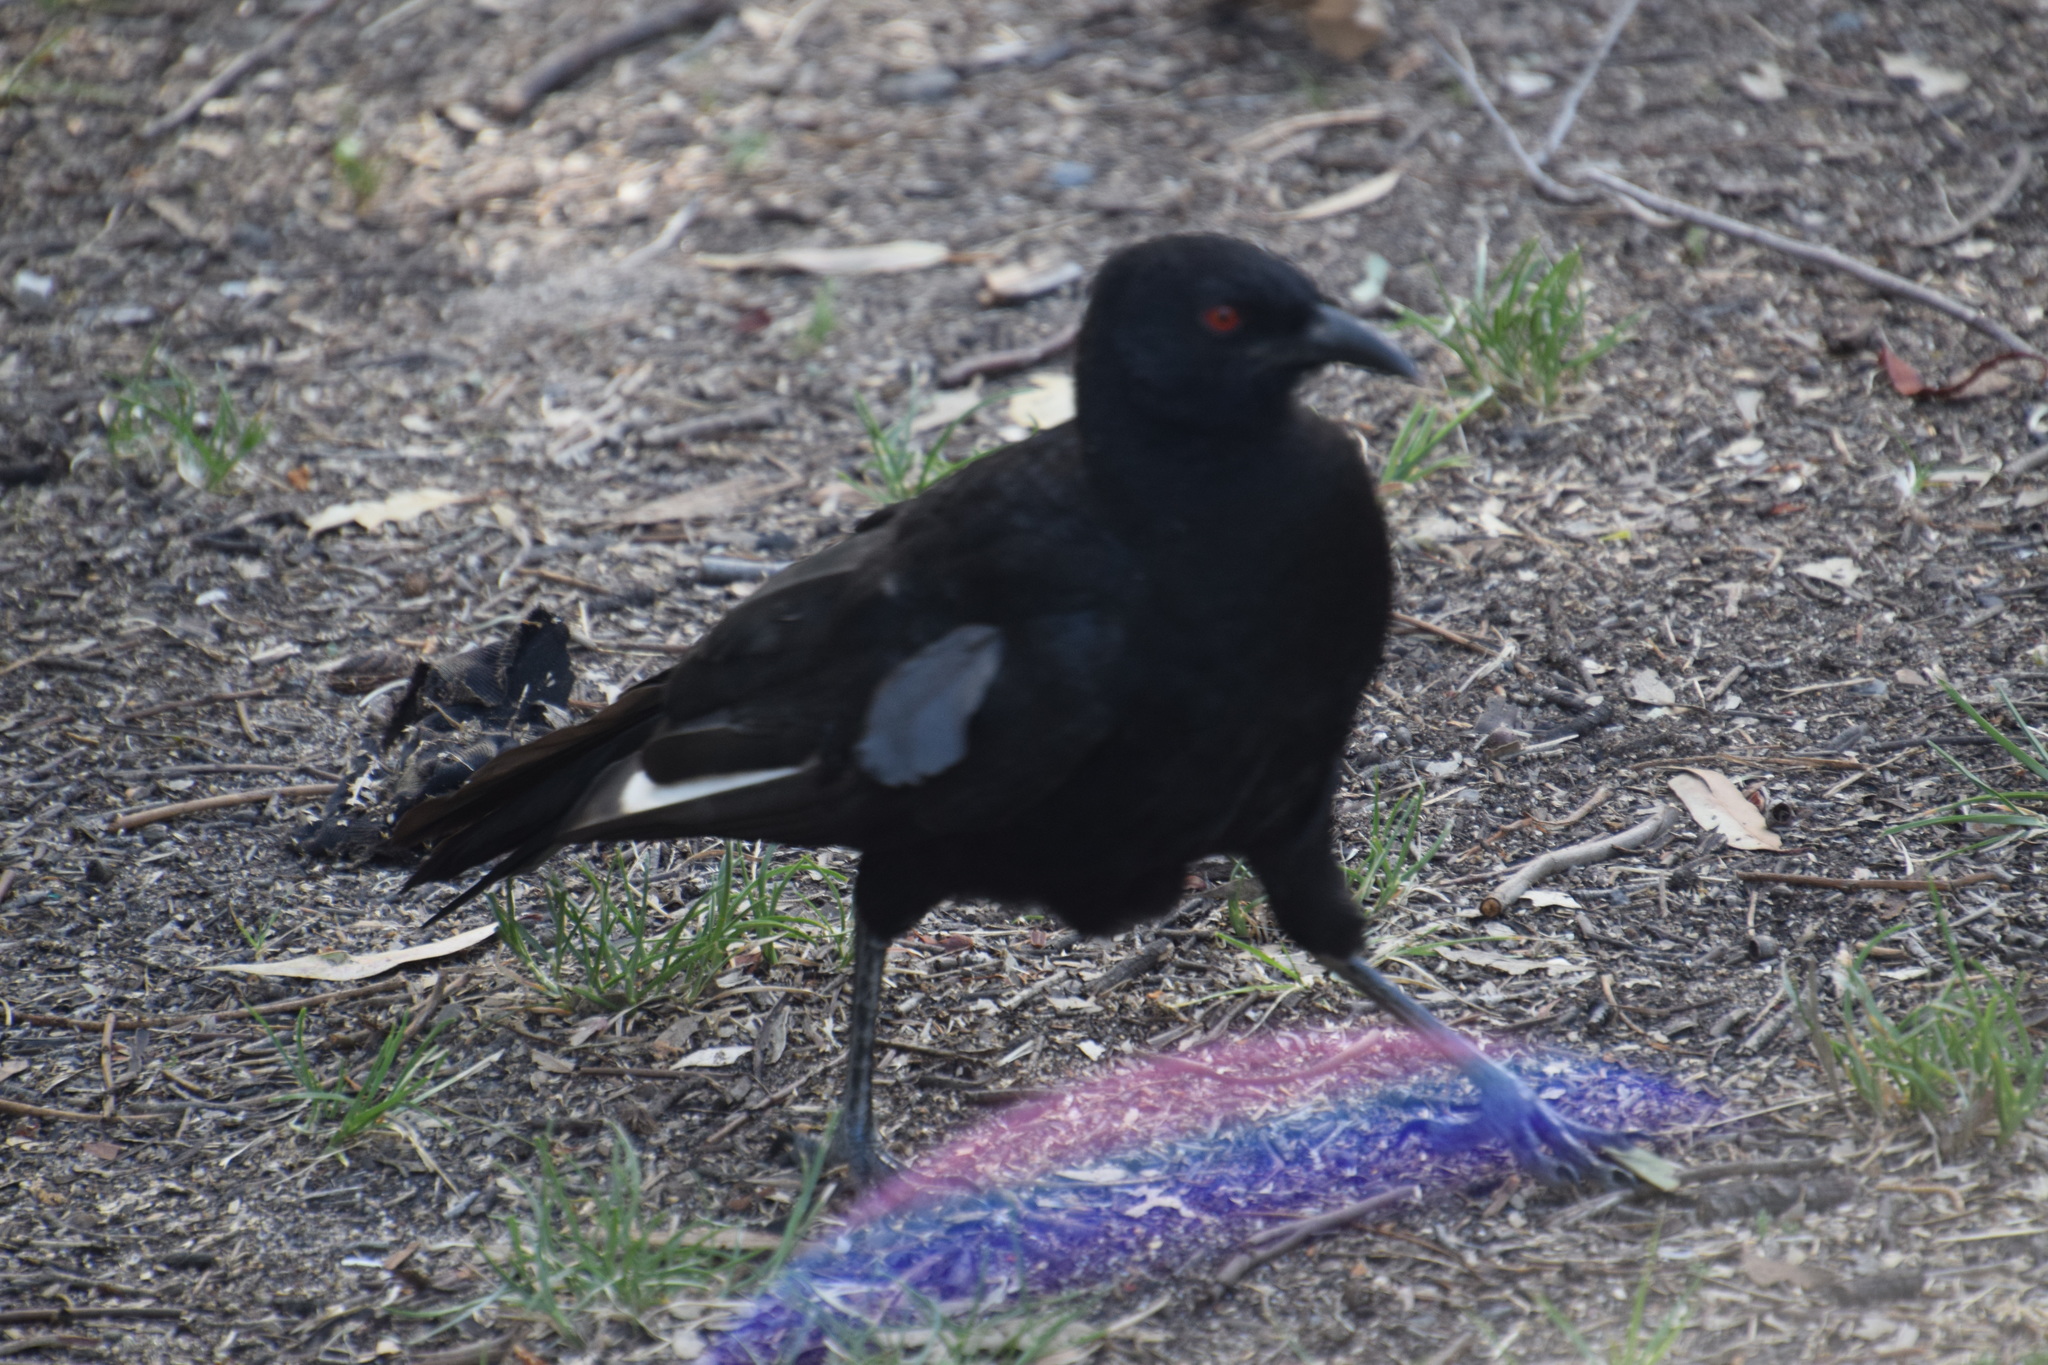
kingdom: Animalia
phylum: Chordata
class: Aves
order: Passeriformes
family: Corcoracidae
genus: Corcorax
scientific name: Corcorax melanoramphos
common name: White-winged chough
